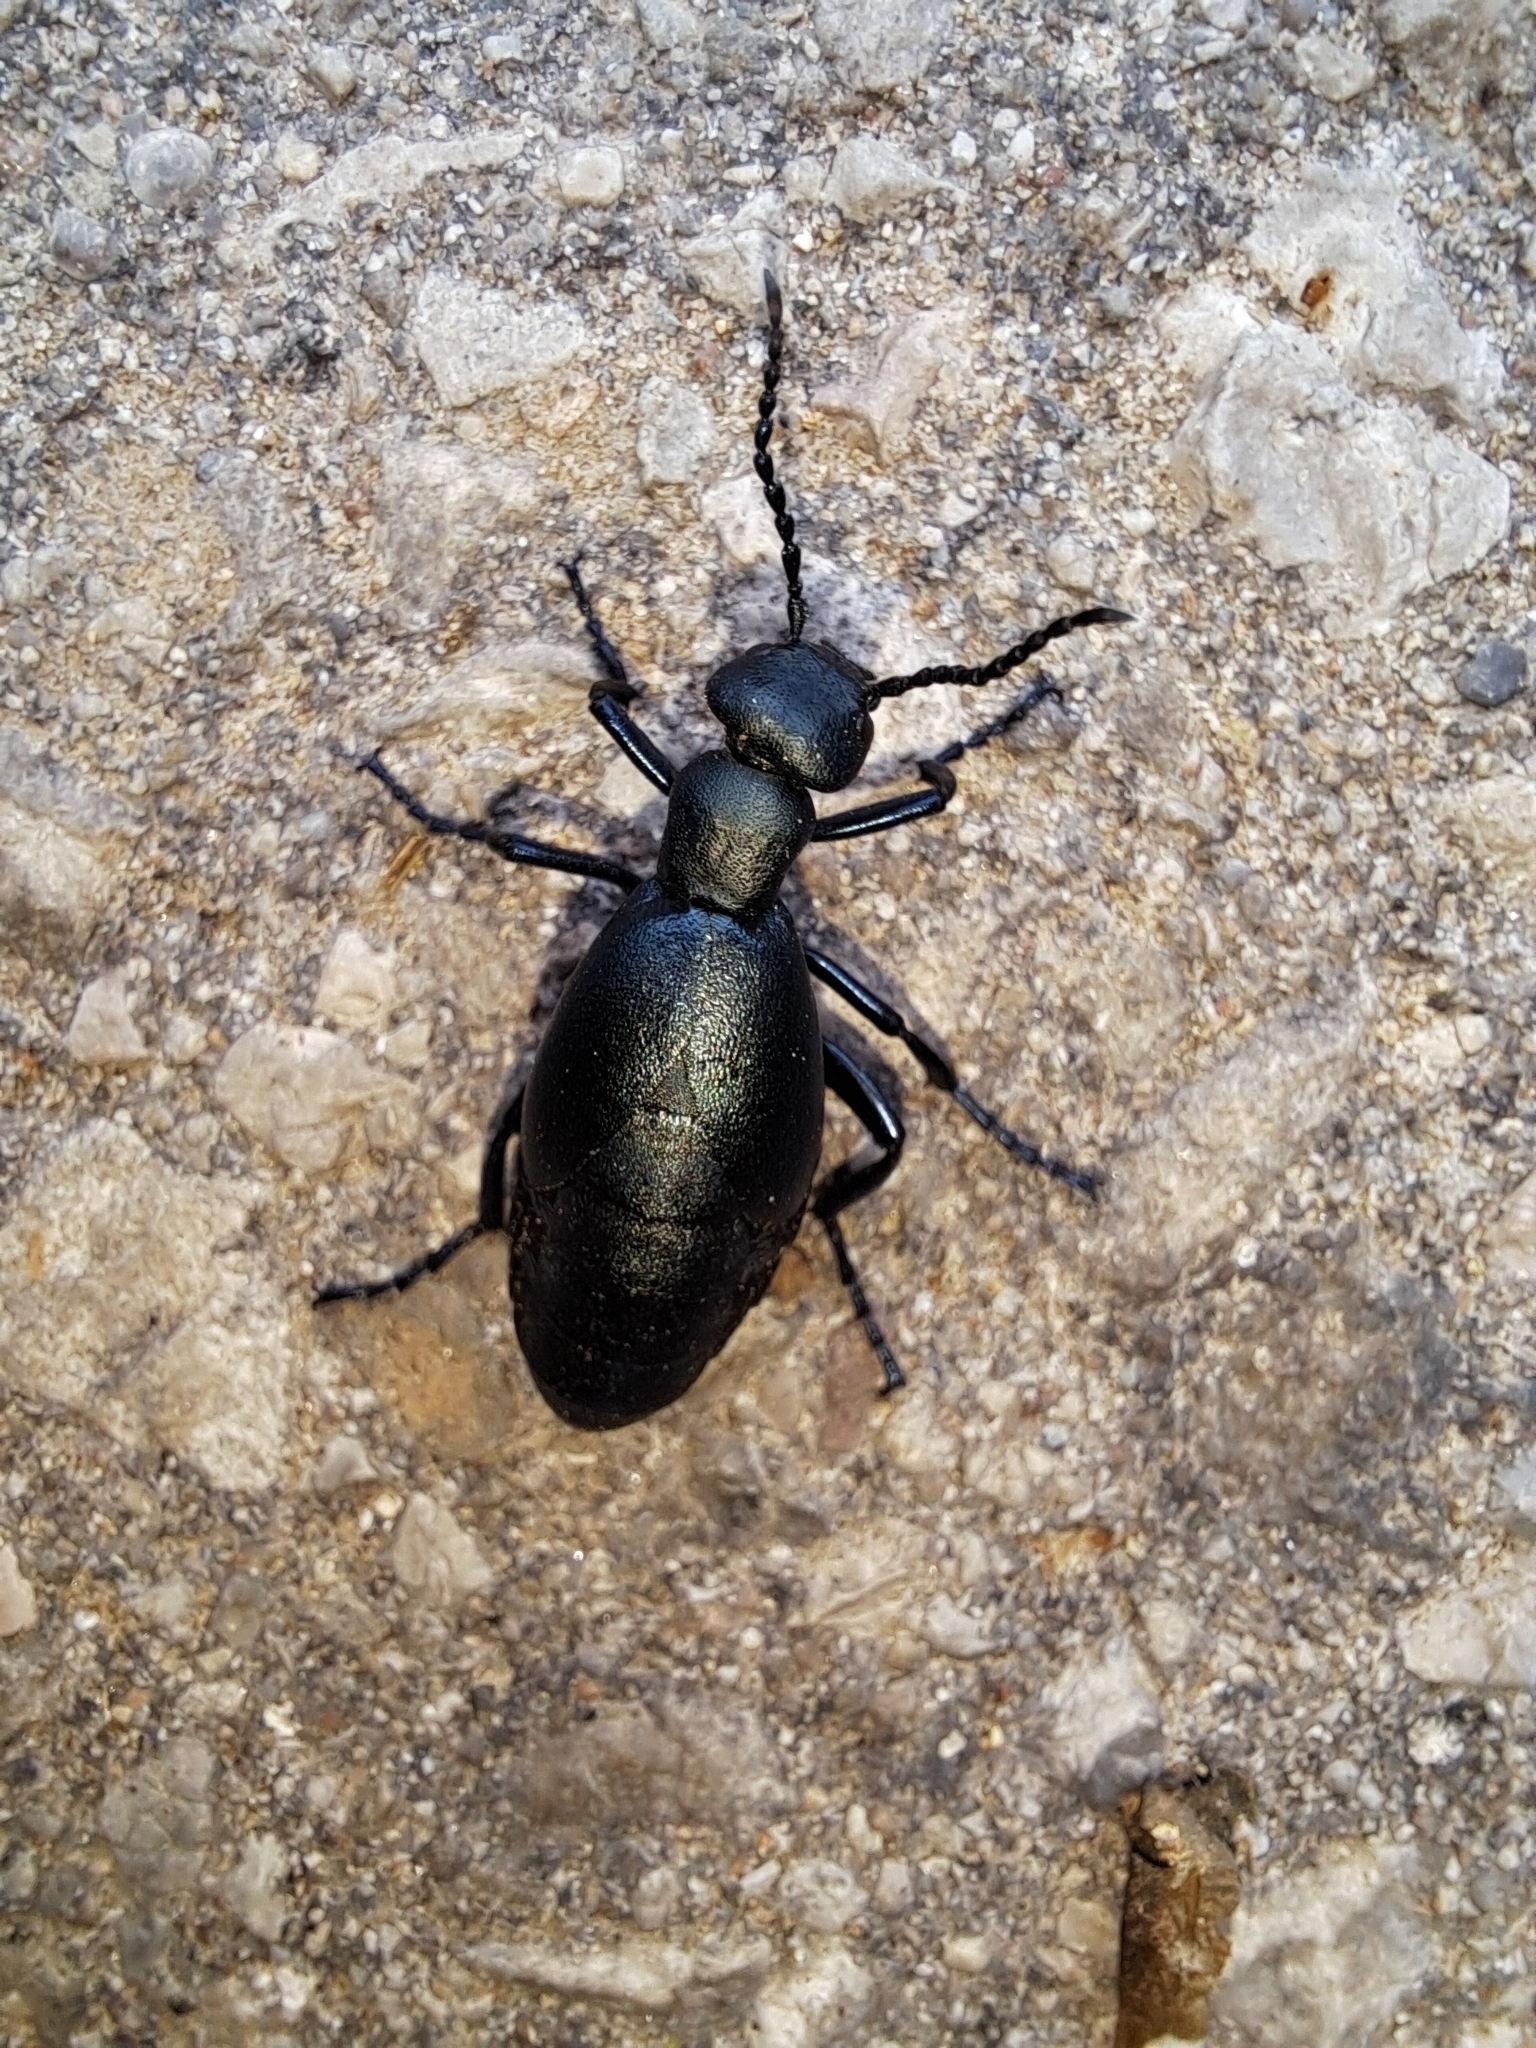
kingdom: Animalia
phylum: Arthropoda
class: Insecta
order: Coleoptera
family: Meloidae
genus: Meloe
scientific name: Meloe campanicollis
